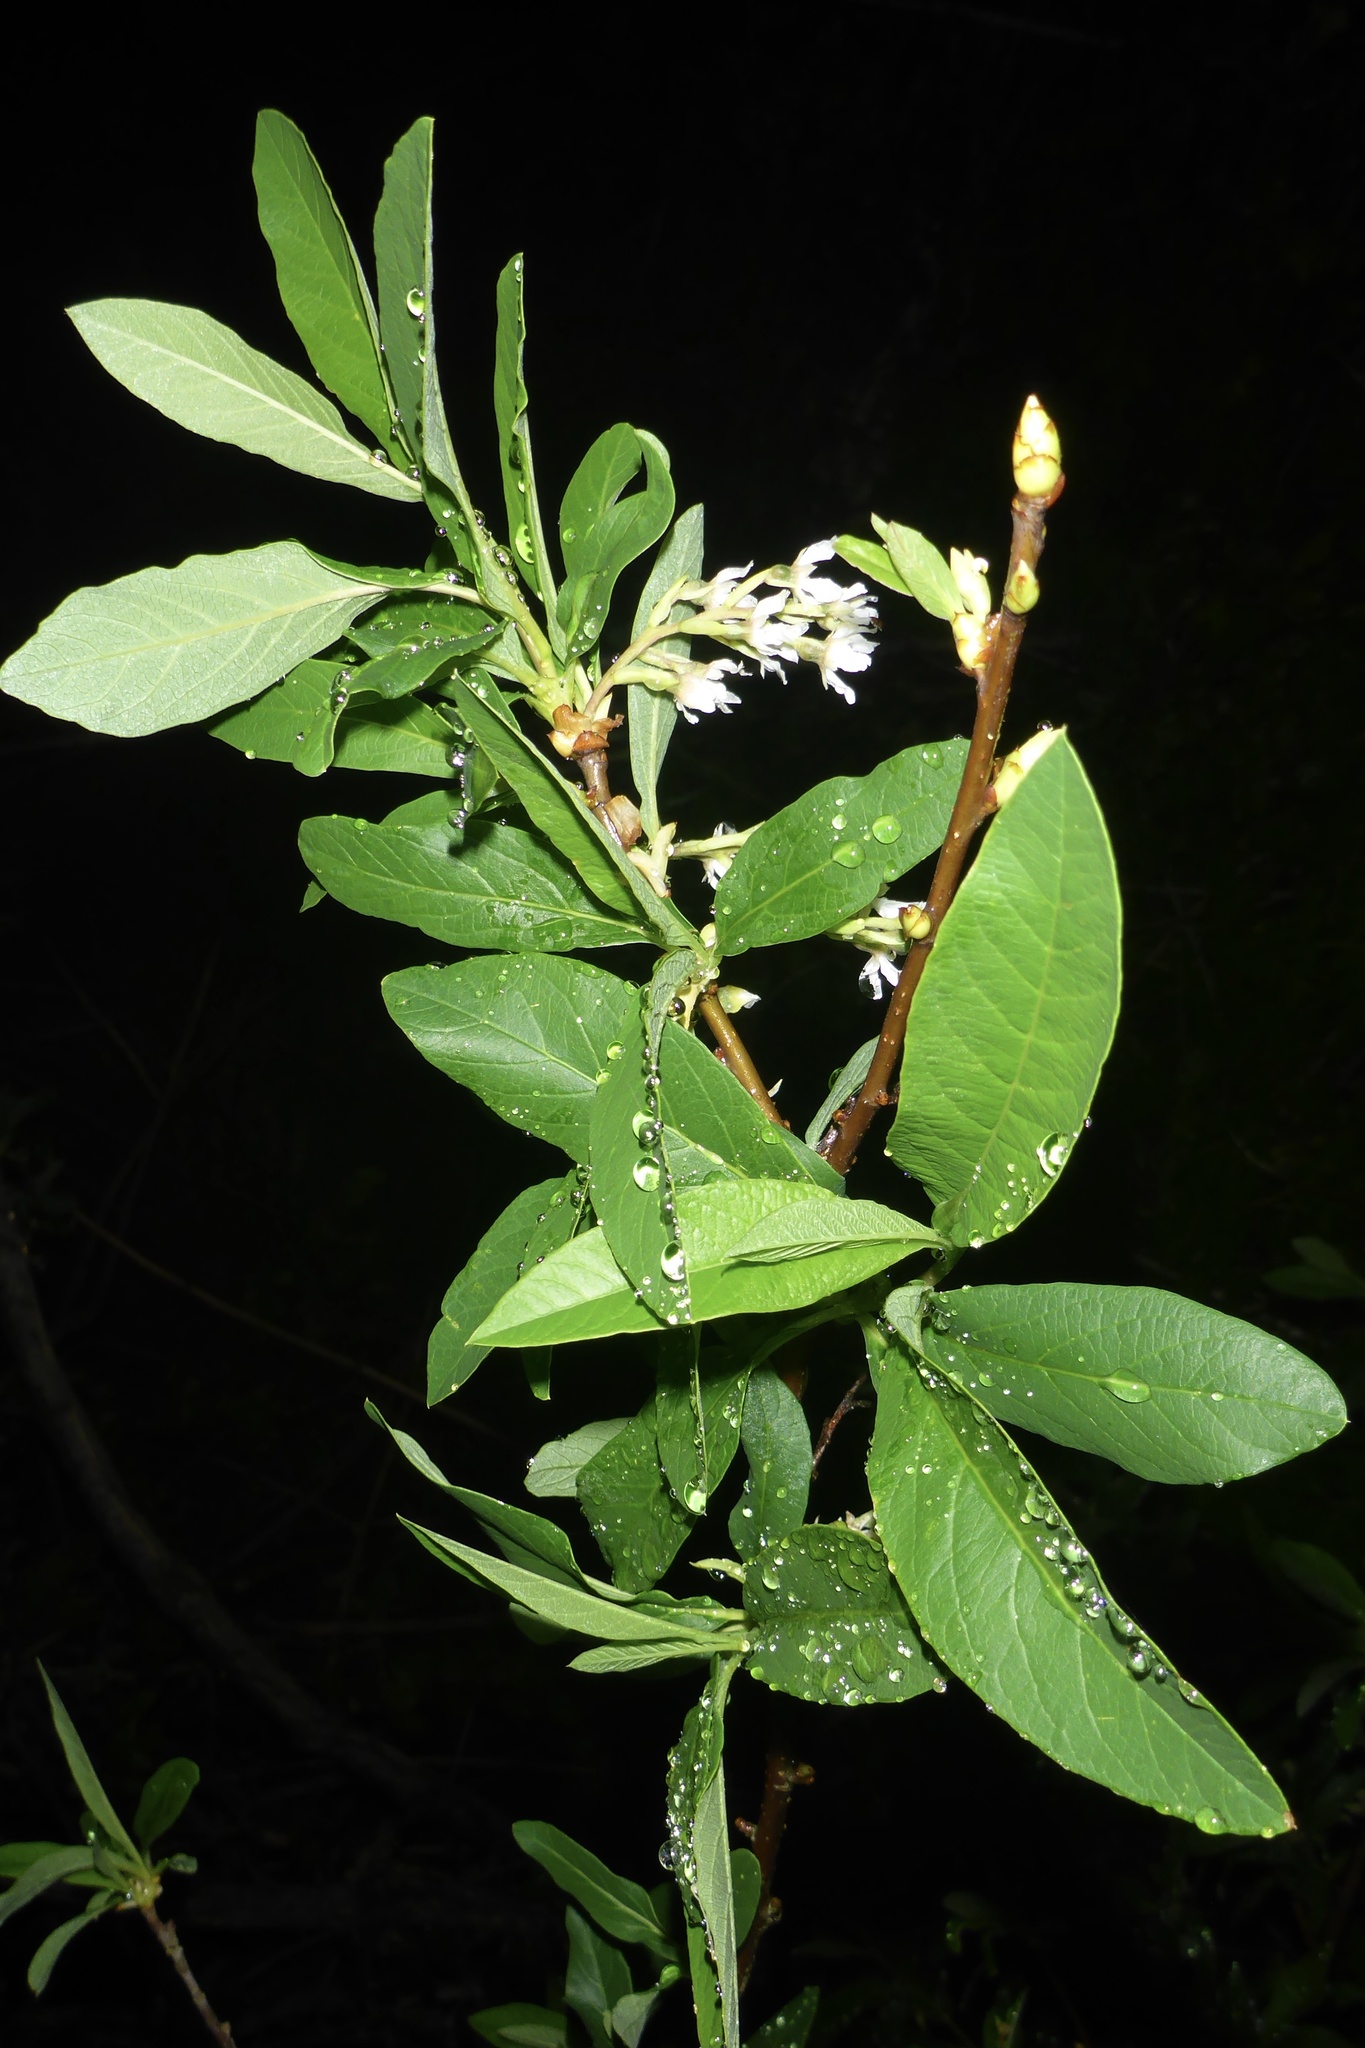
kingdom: Plantae
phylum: Tracheophyta
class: Magnoliopsida
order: Rosales
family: Rosaceae
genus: Oemleria
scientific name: Oemleria cerasiformis
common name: Osoberry
